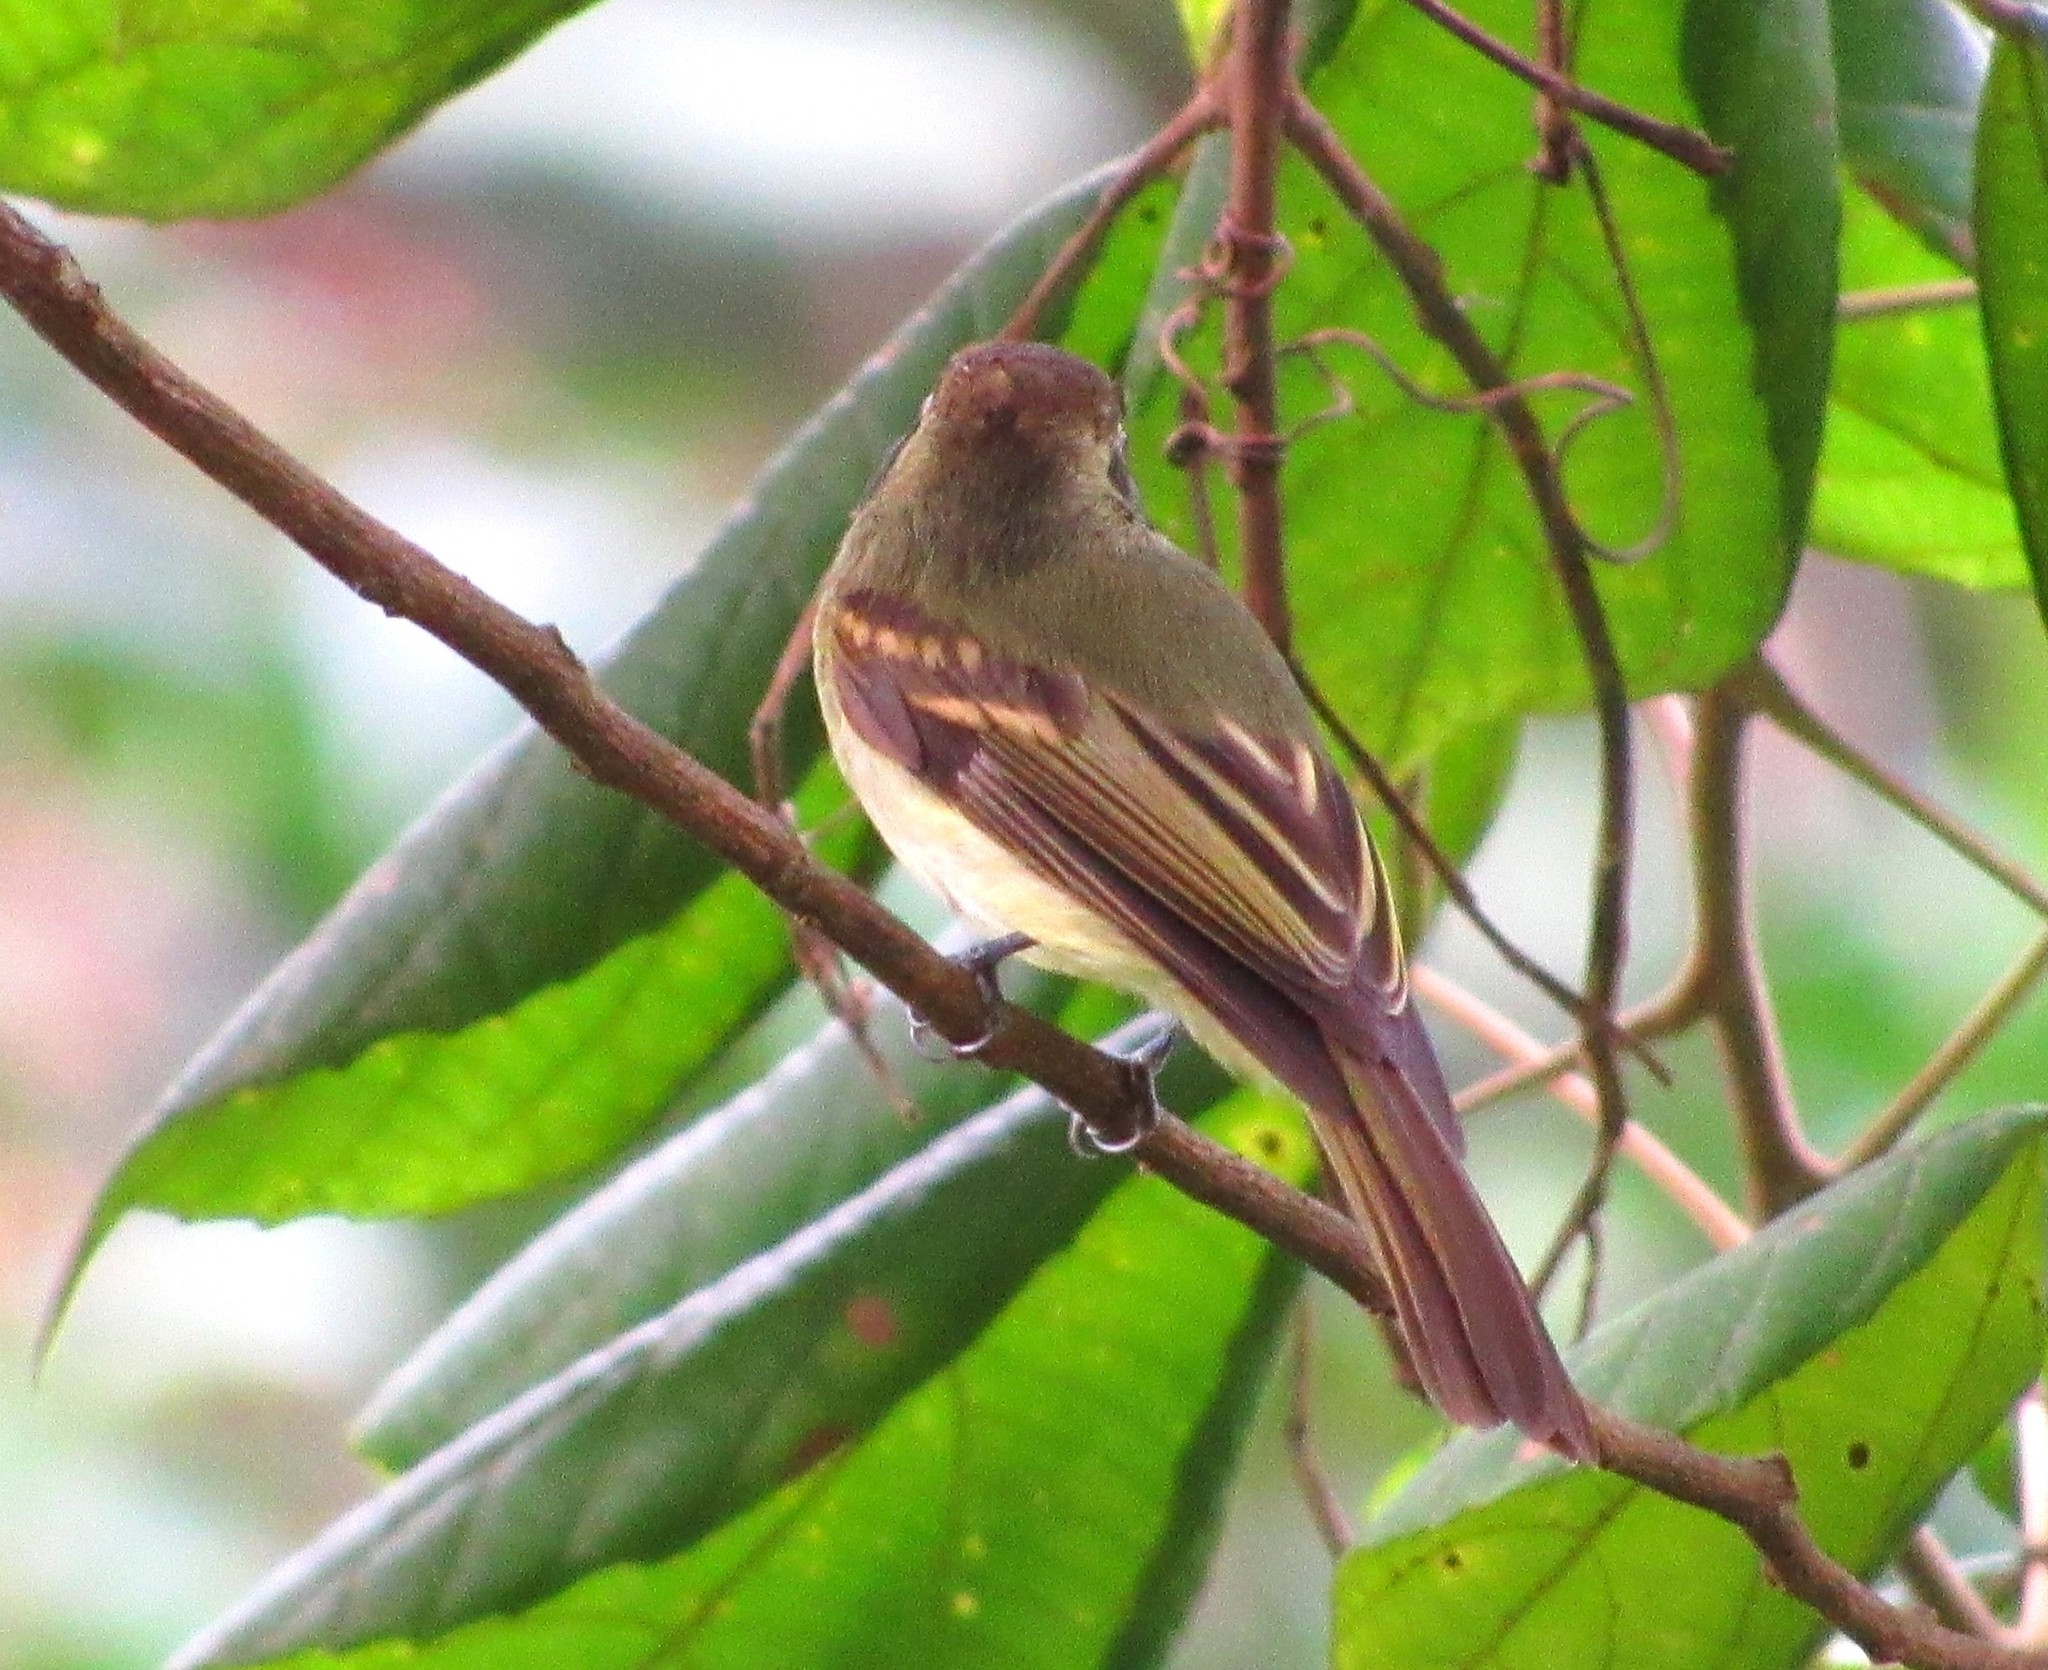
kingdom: Animalia
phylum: Chordata
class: Aves
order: Passeriformes
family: Tyrannidae
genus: Leptopogon
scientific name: Leptopogon amaurocephalus
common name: Sepia-capped flycatcher
